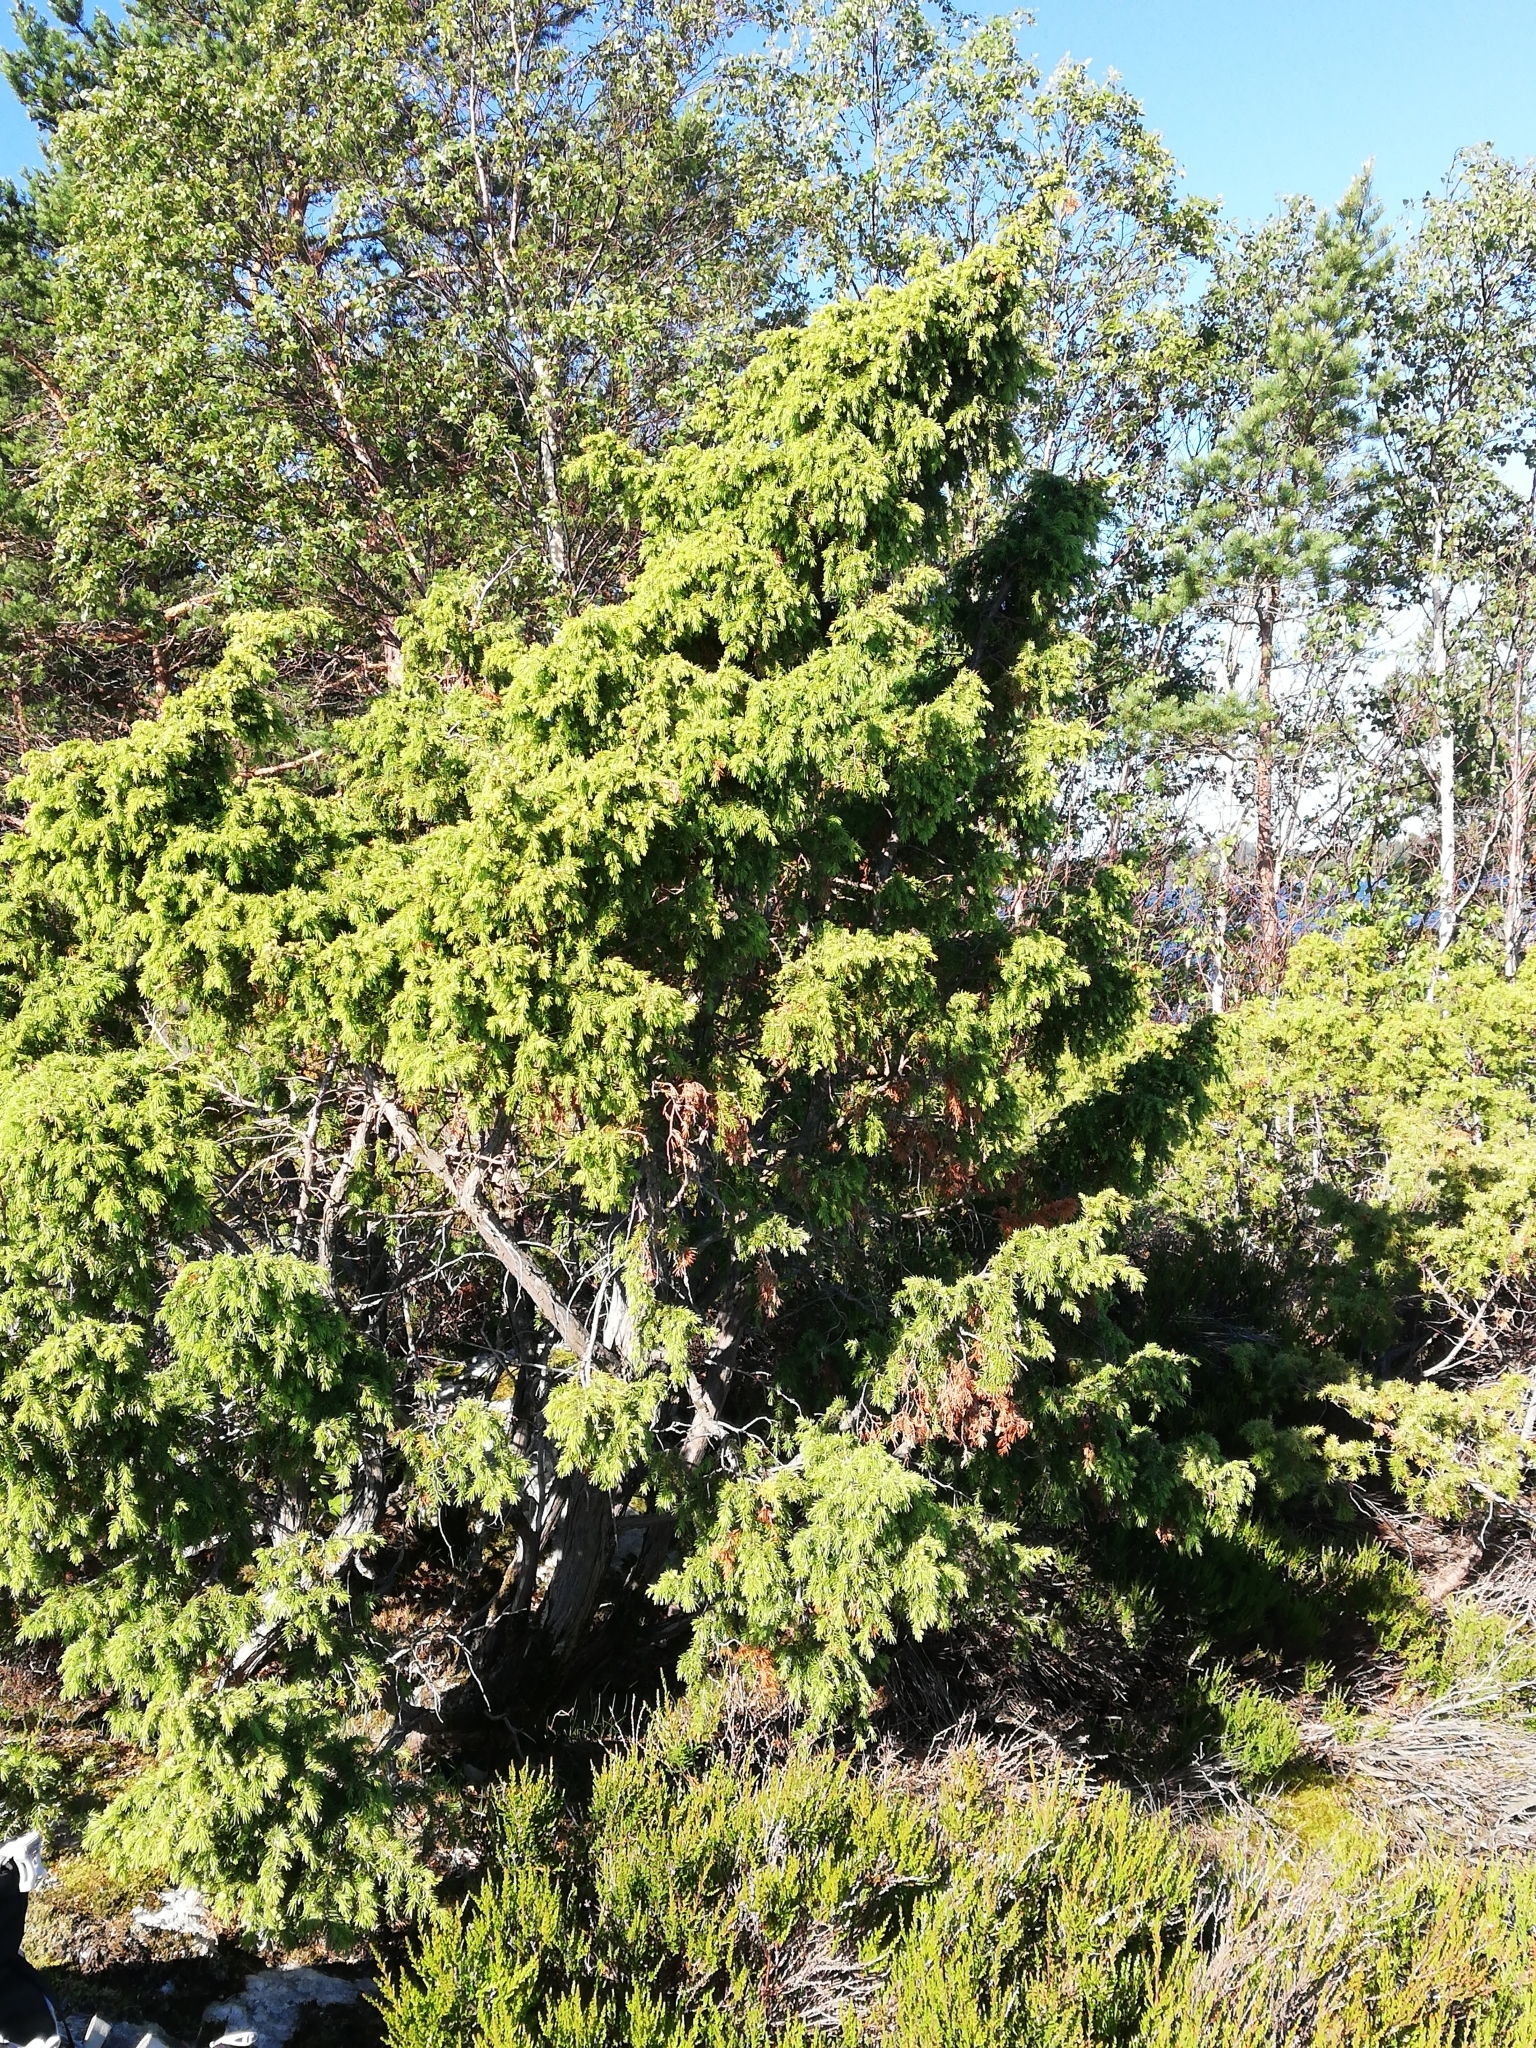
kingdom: Plantae
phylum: Tracheophyta
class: Pinopsida
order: Pinales
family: Cupressaceae
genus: Juniperus
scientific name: Juniperus communis
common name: Common juniper
